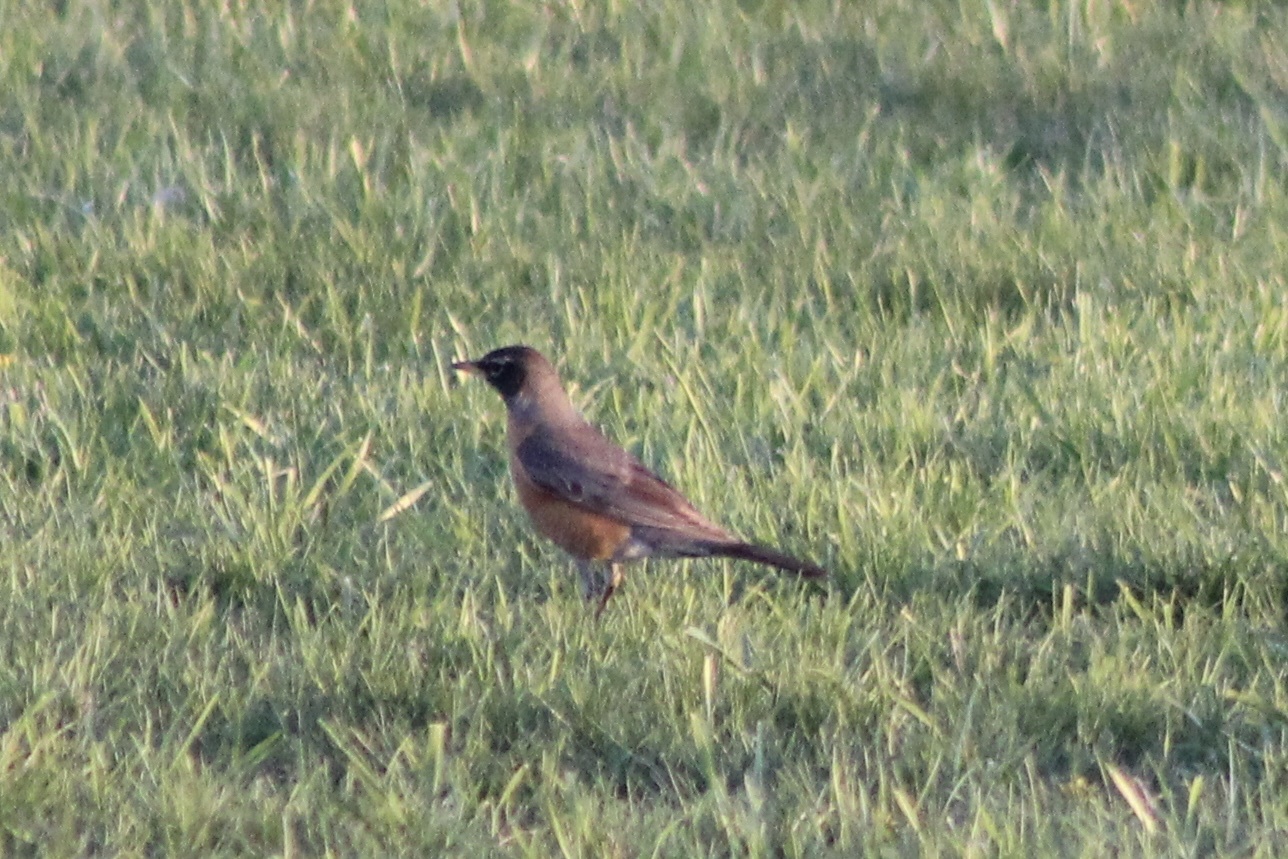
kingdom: Animalia
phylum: Chordata
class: Aves
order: Passeriformes
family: Turdidae
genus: Turdus
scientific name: Turdus migratorius
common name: American robin
